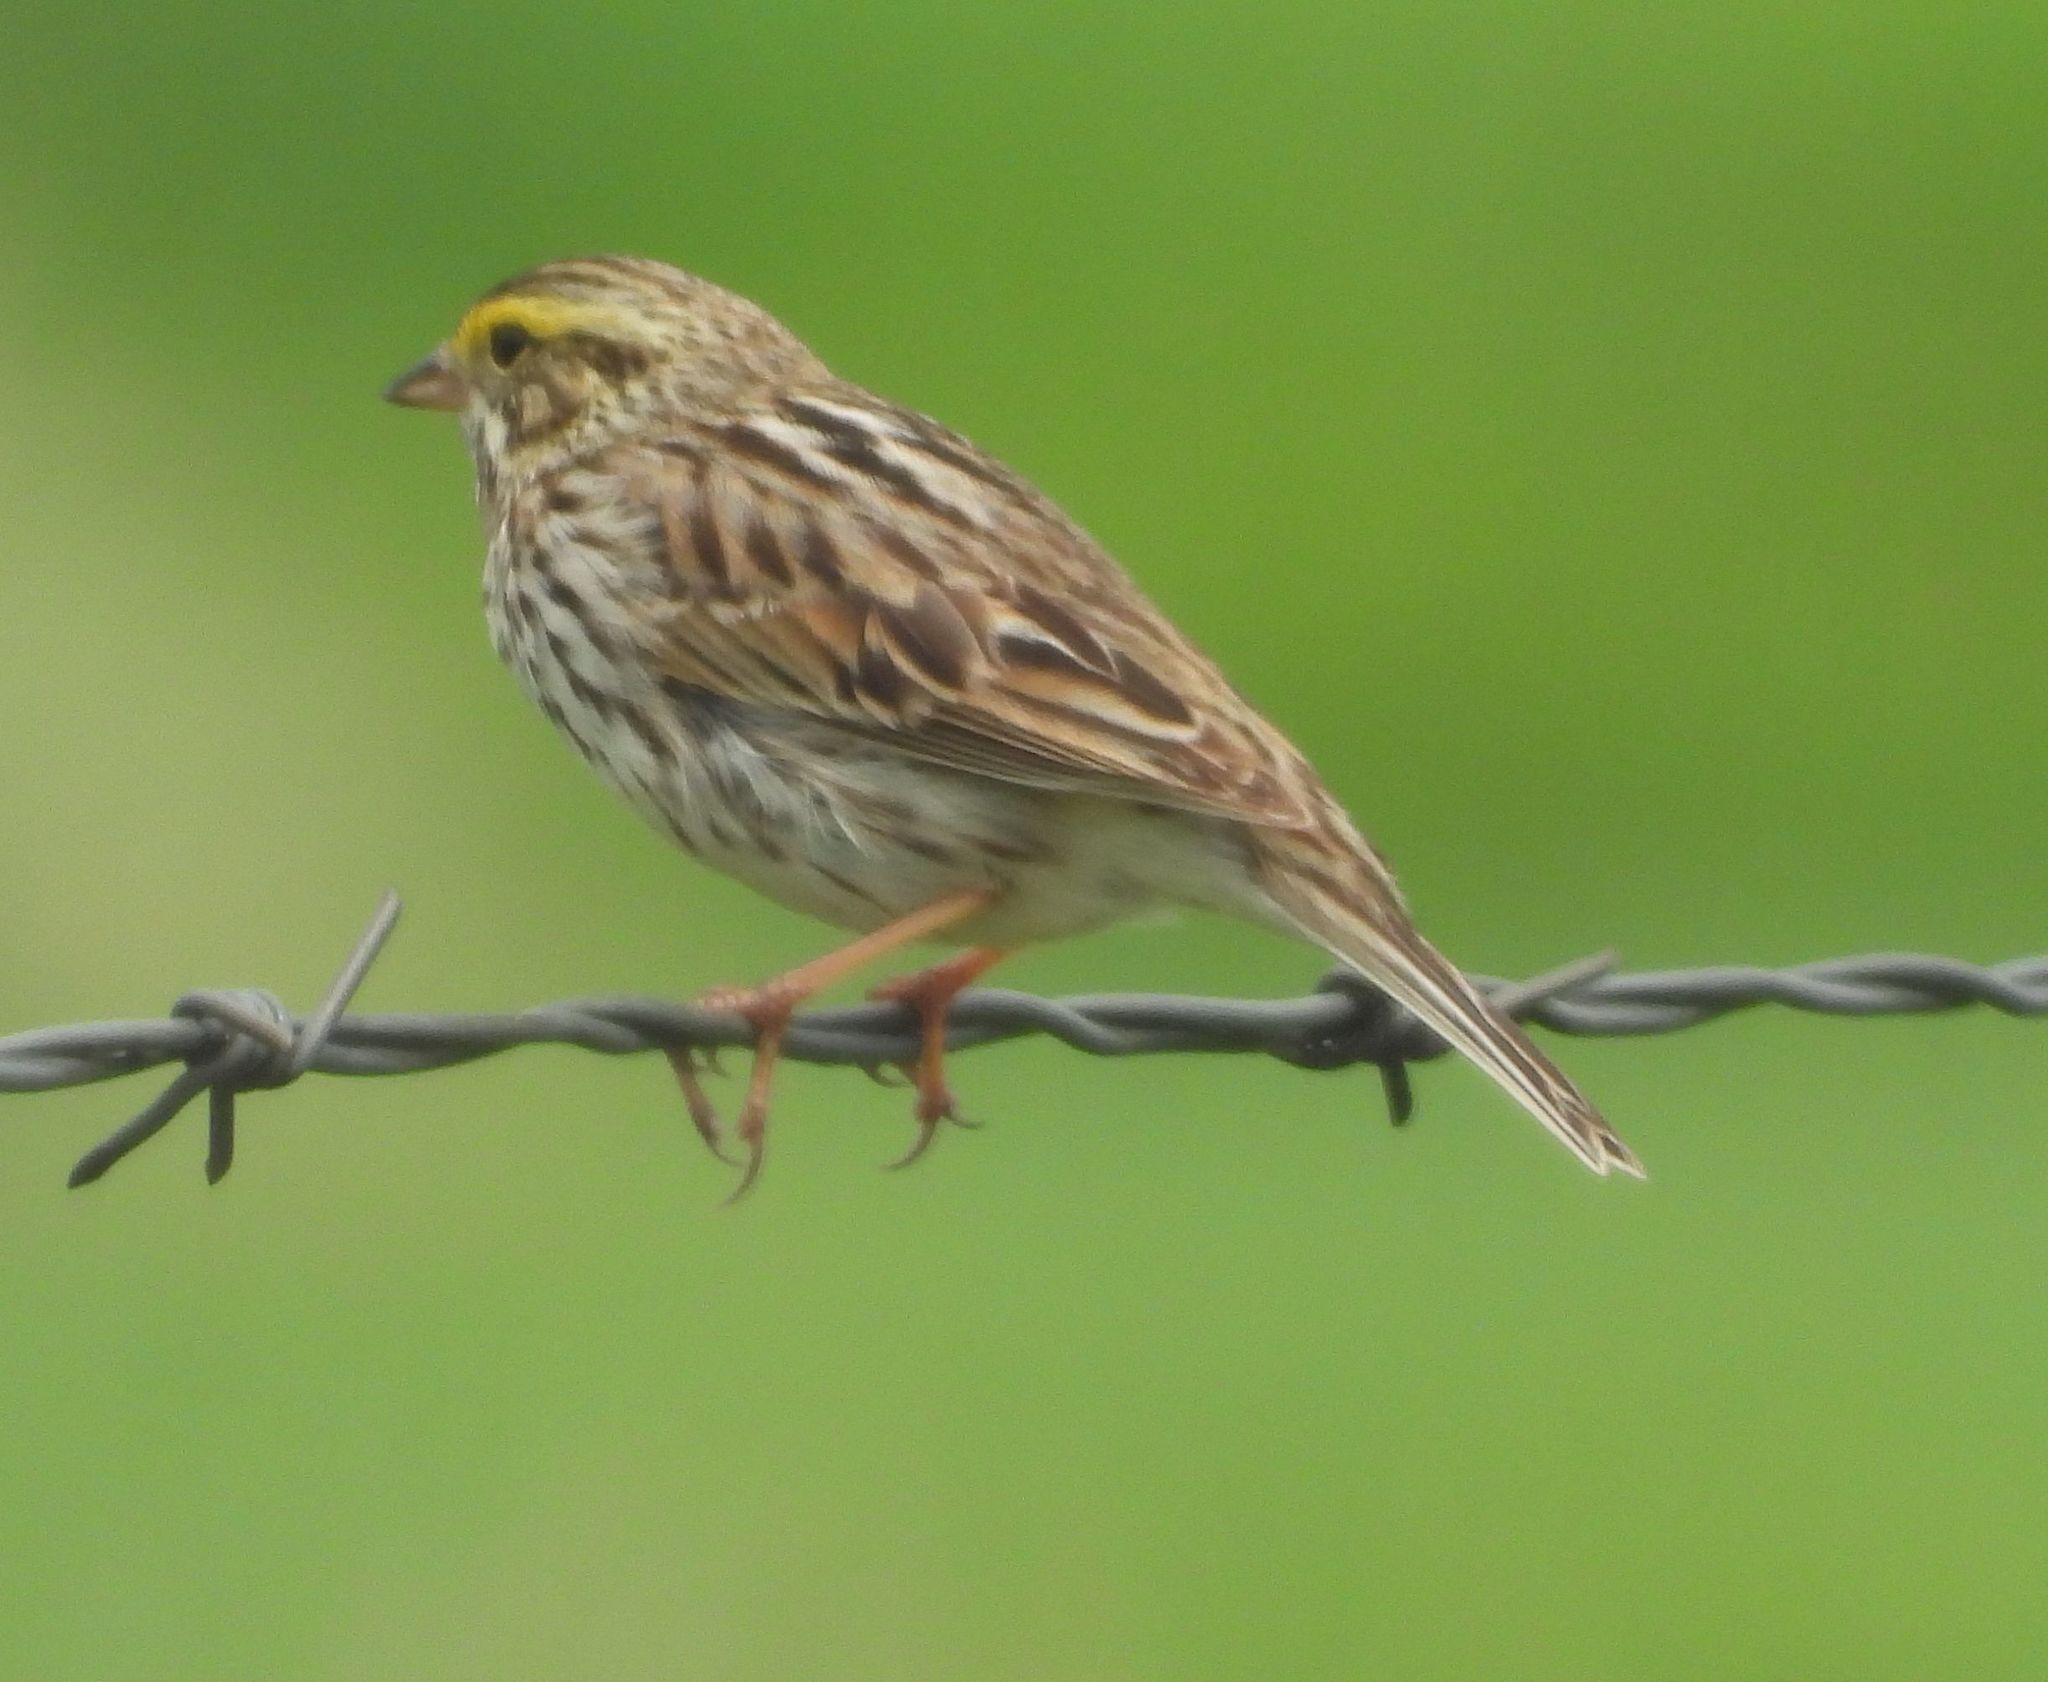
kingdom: Animalia
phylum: Chordata
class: Aves
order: Passeriformes
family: Passerellidae
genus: Passerculus
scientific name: Passerculus sandwichensis
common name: Savannah sparrow
